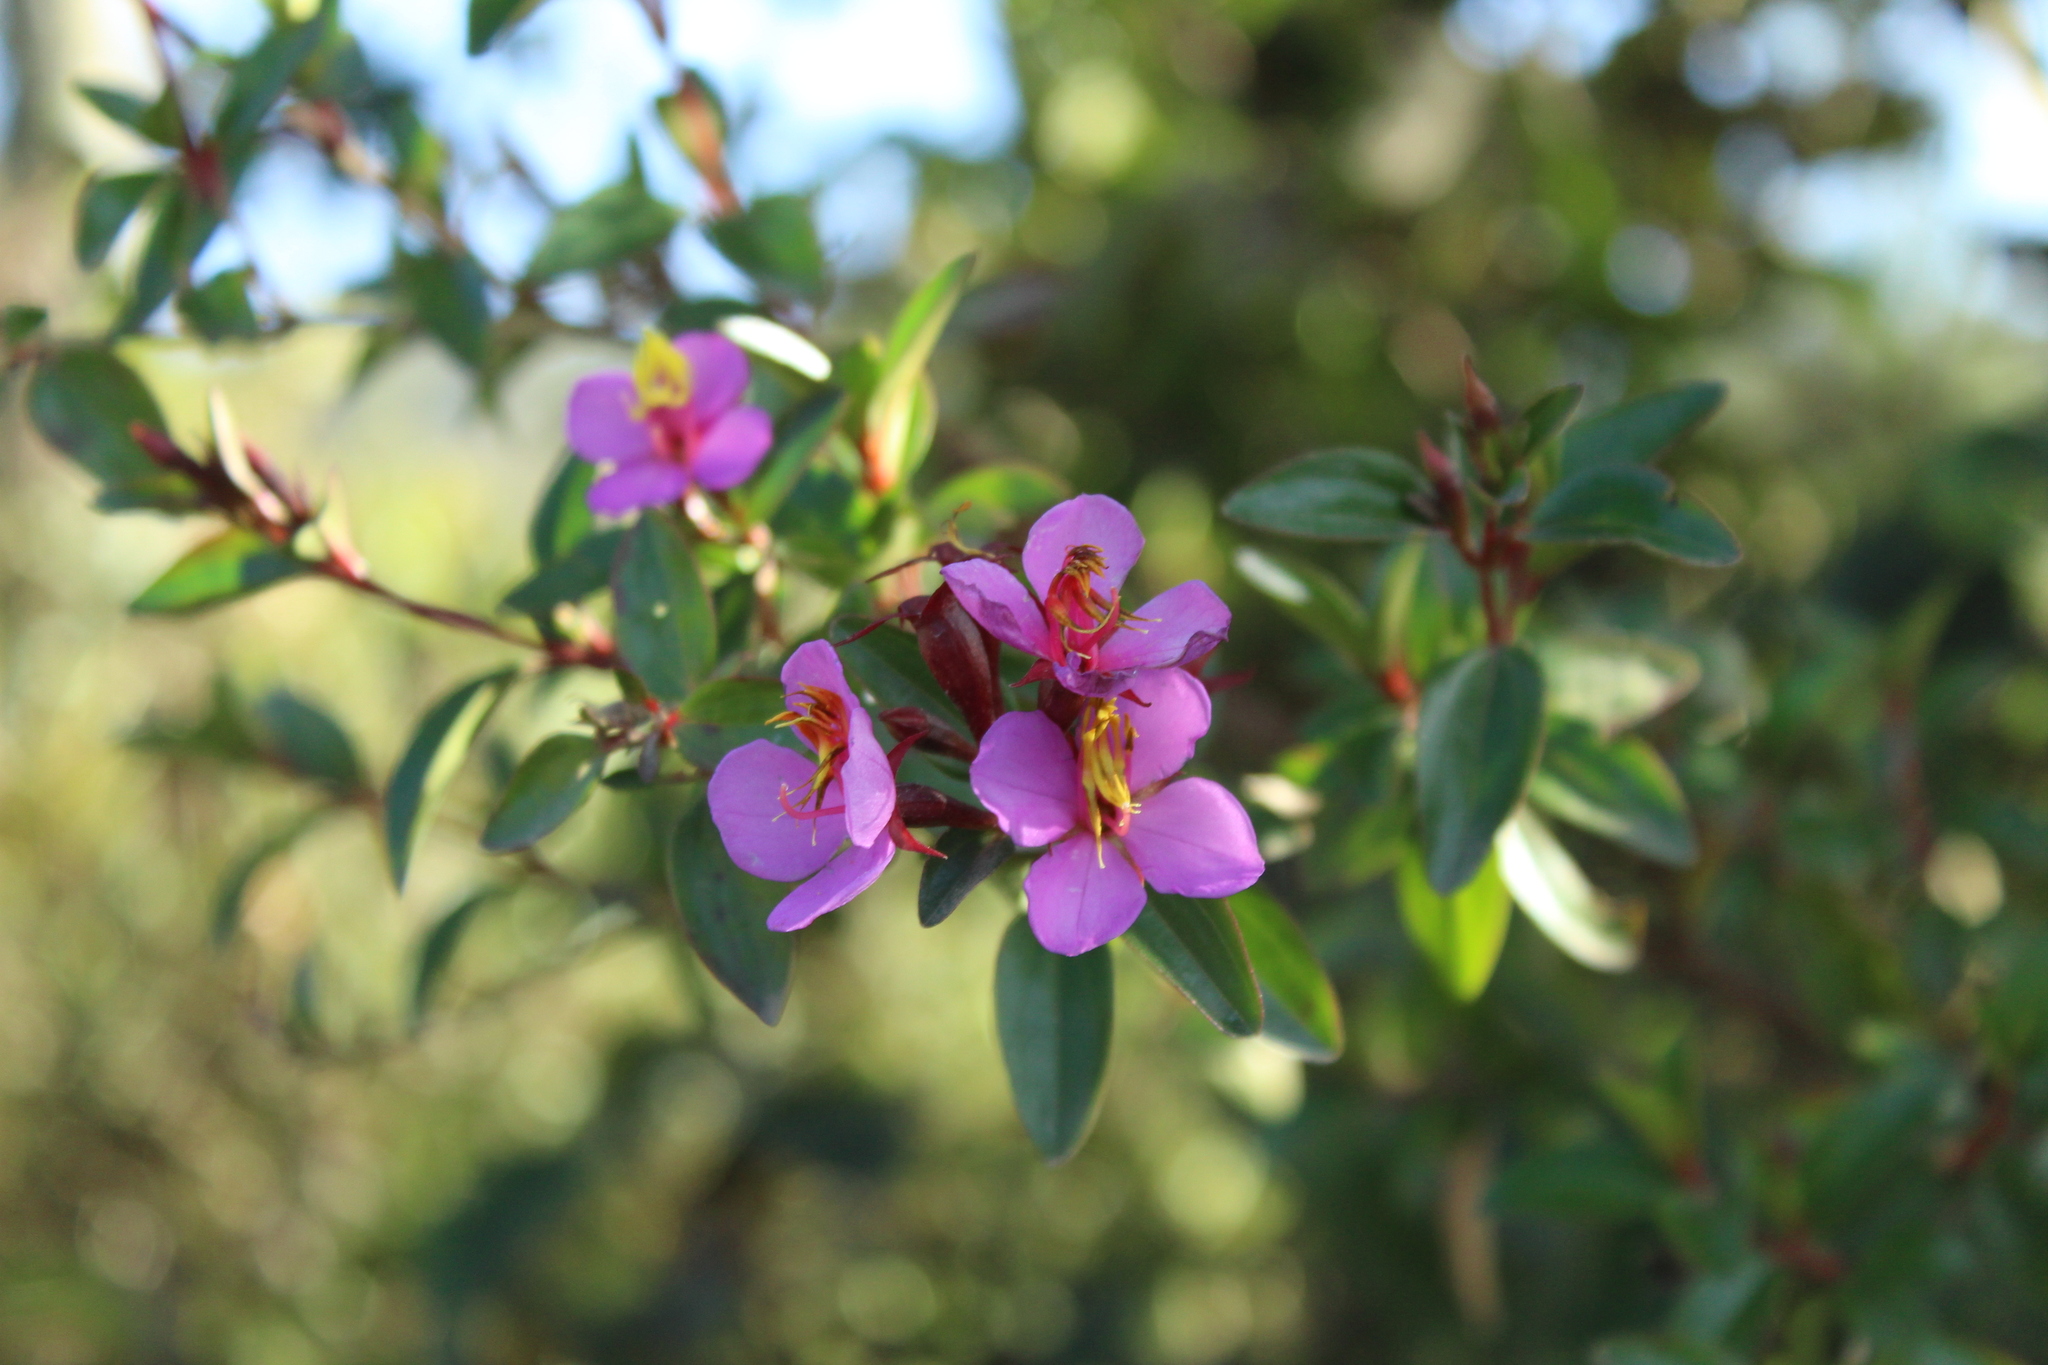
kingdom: Plantae
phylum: Tracheophyta
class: Magnoliopsida
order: Myrtales
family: Melastomataceae
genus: Monochaetum
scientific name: Monochaetum myrtoideum
